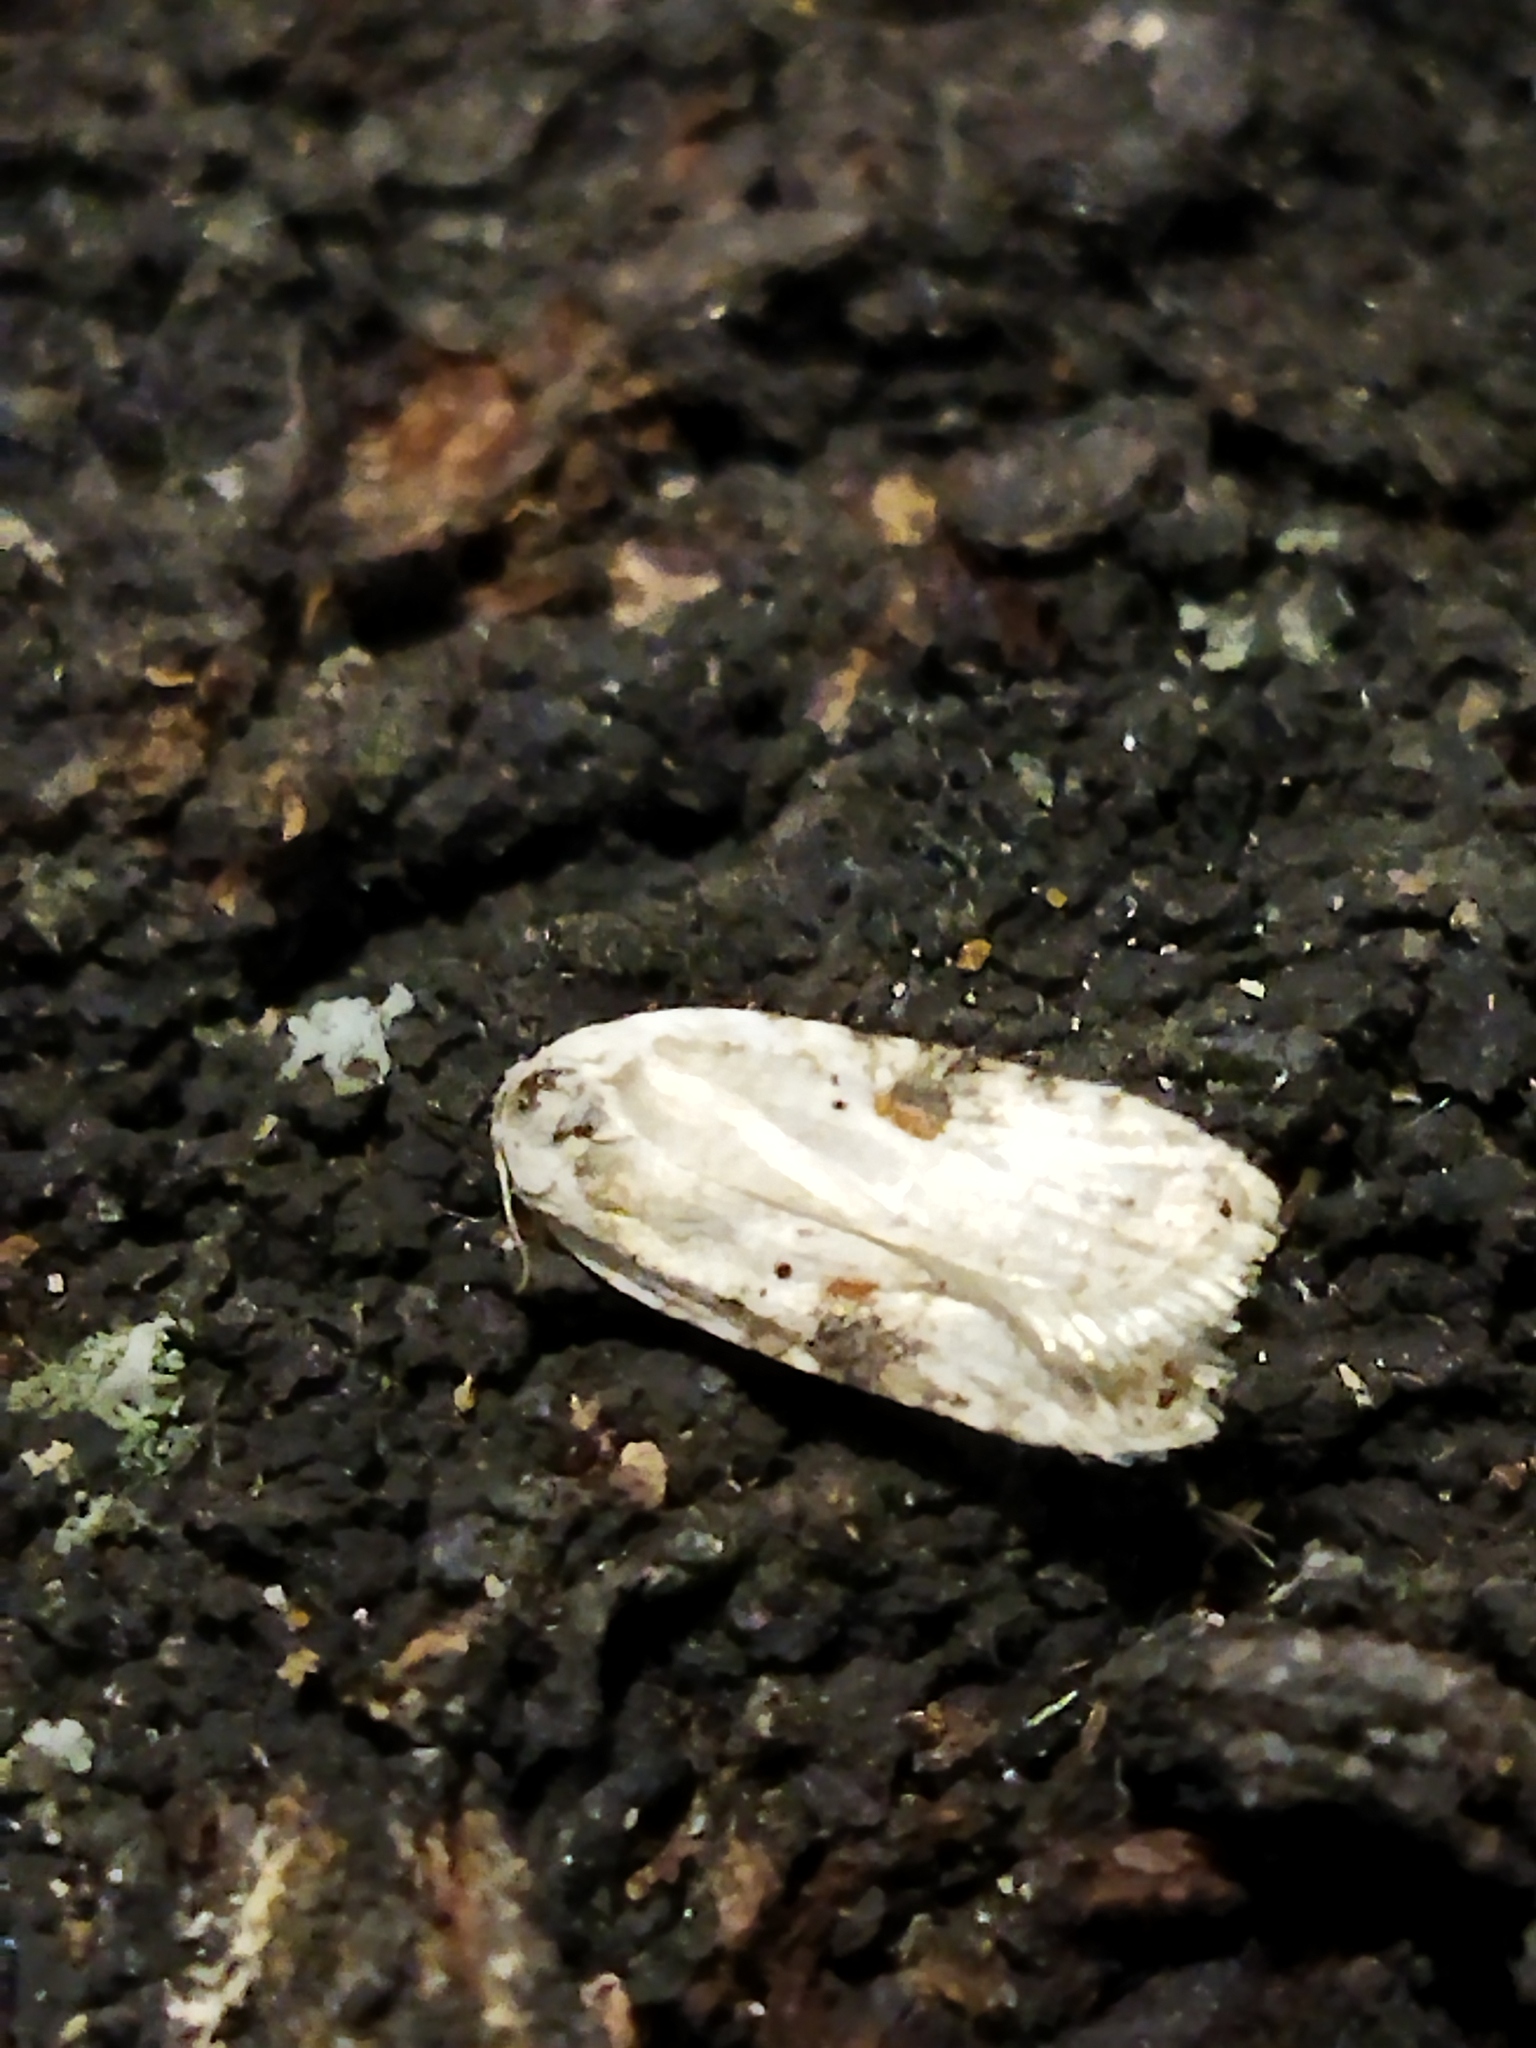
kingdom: Animalia
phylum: Arthropoda
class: Insecta
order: Lepidoptera
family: Depressariidae
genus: Agonopterix
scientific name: Agonopterix alstroemeriana
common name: Moth
